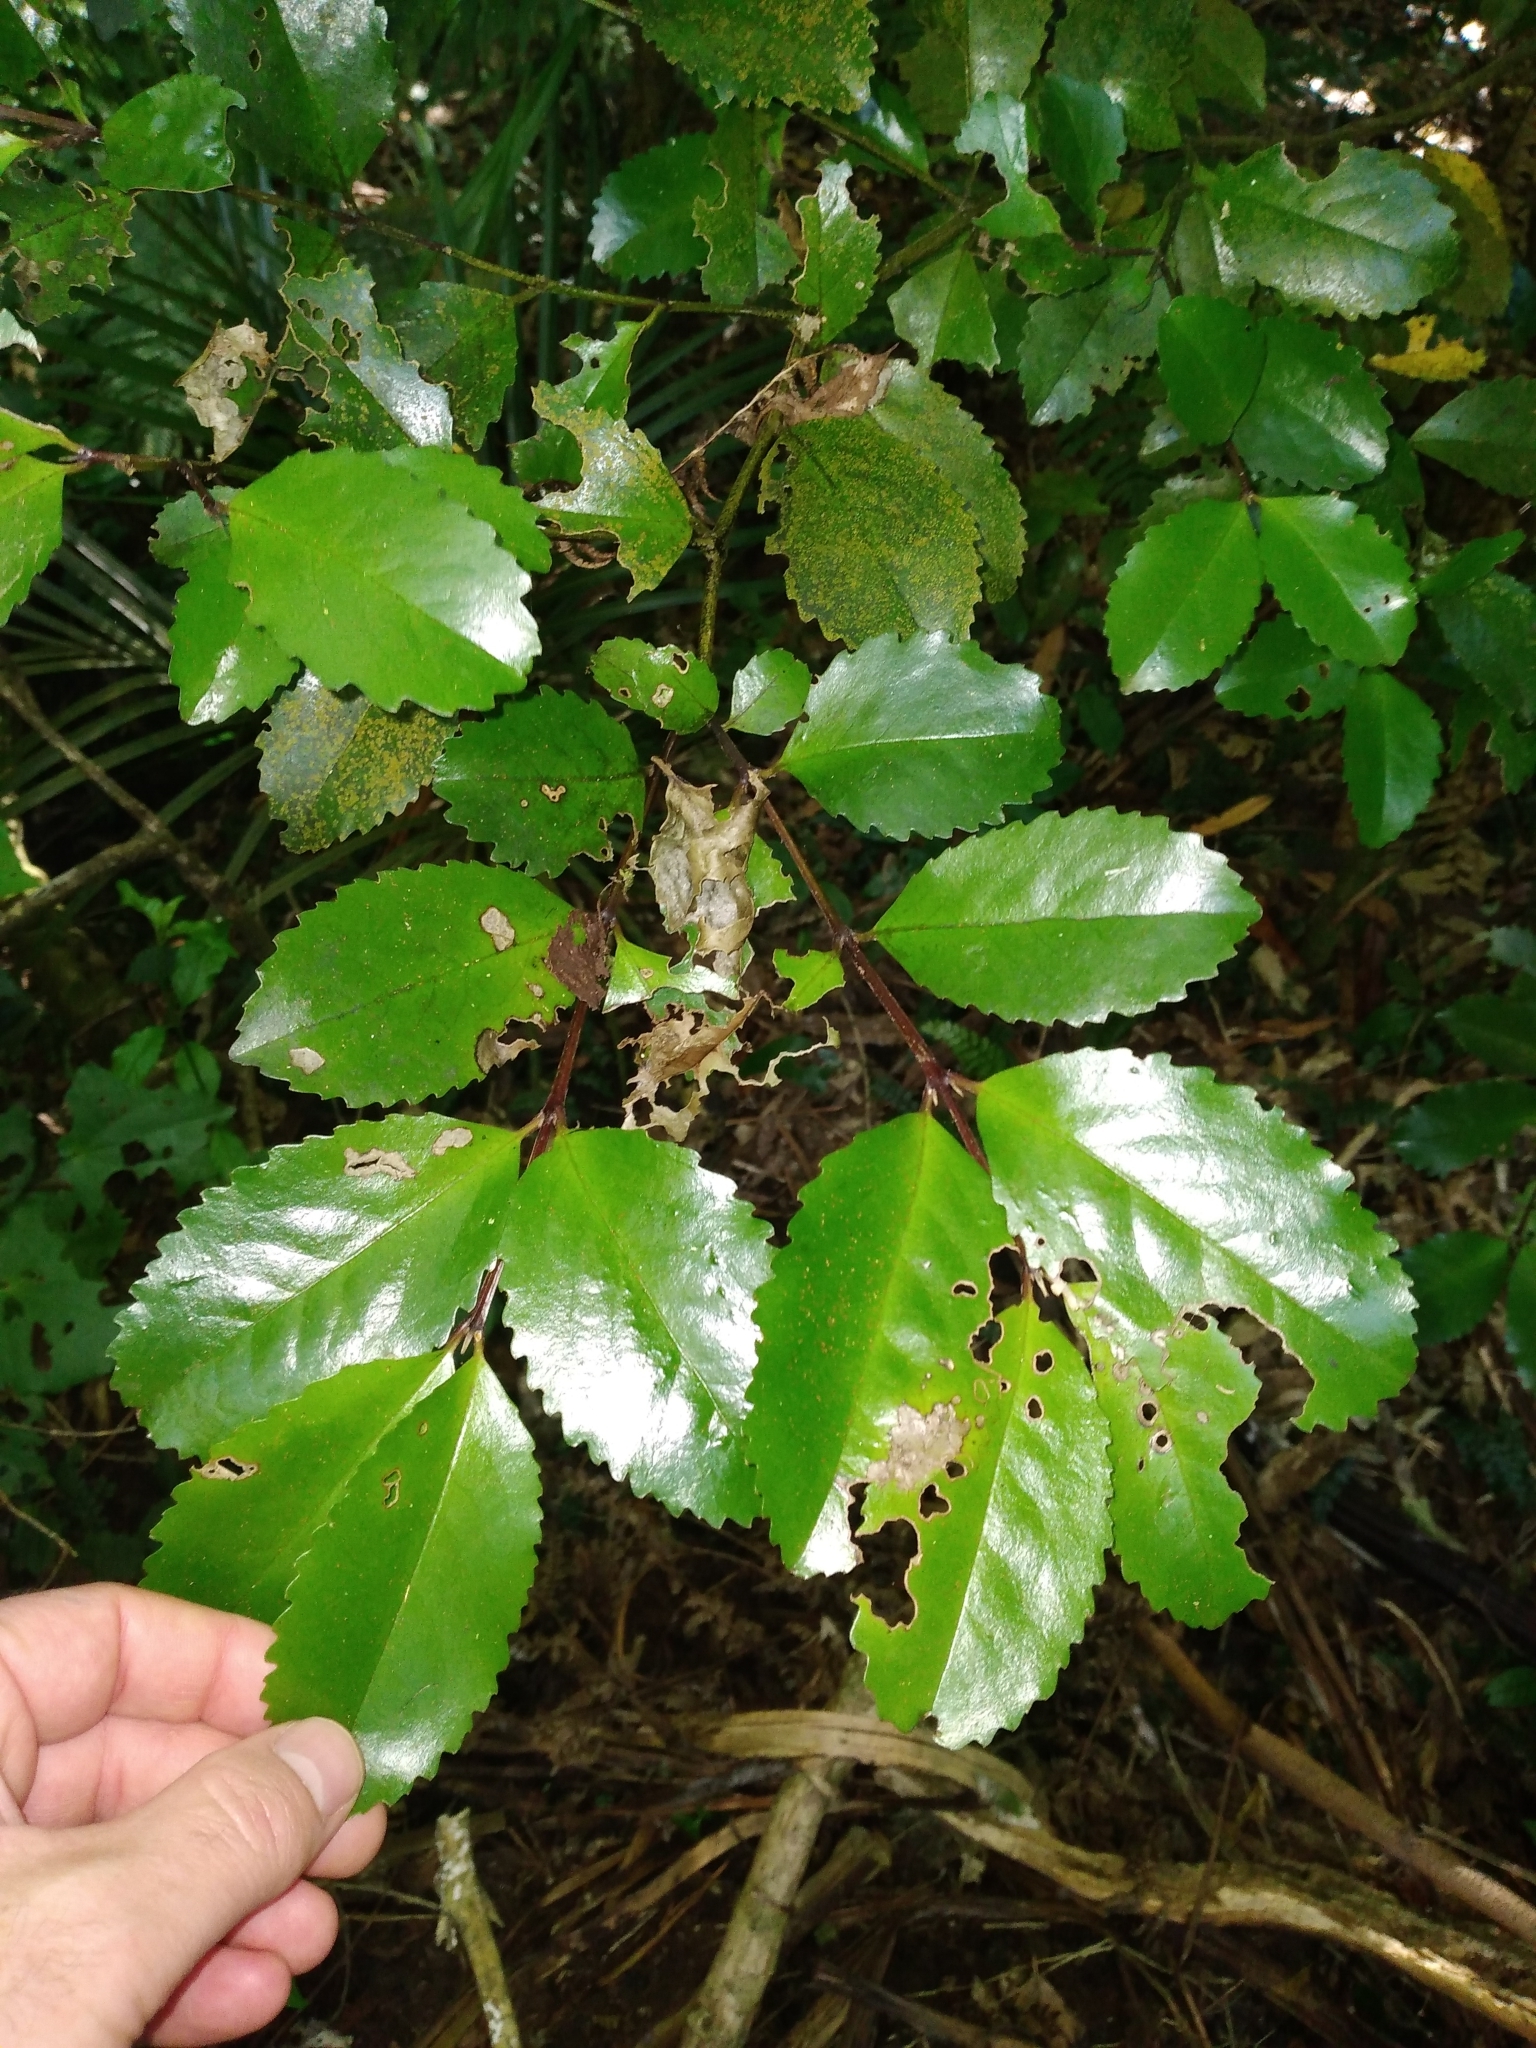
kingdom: Plantae
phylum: Tracheophyta
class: Magnoliopsida
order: Laurales
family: Atherospermataceae
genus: Laurelia
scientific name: Laurelia novae-zelandiae
